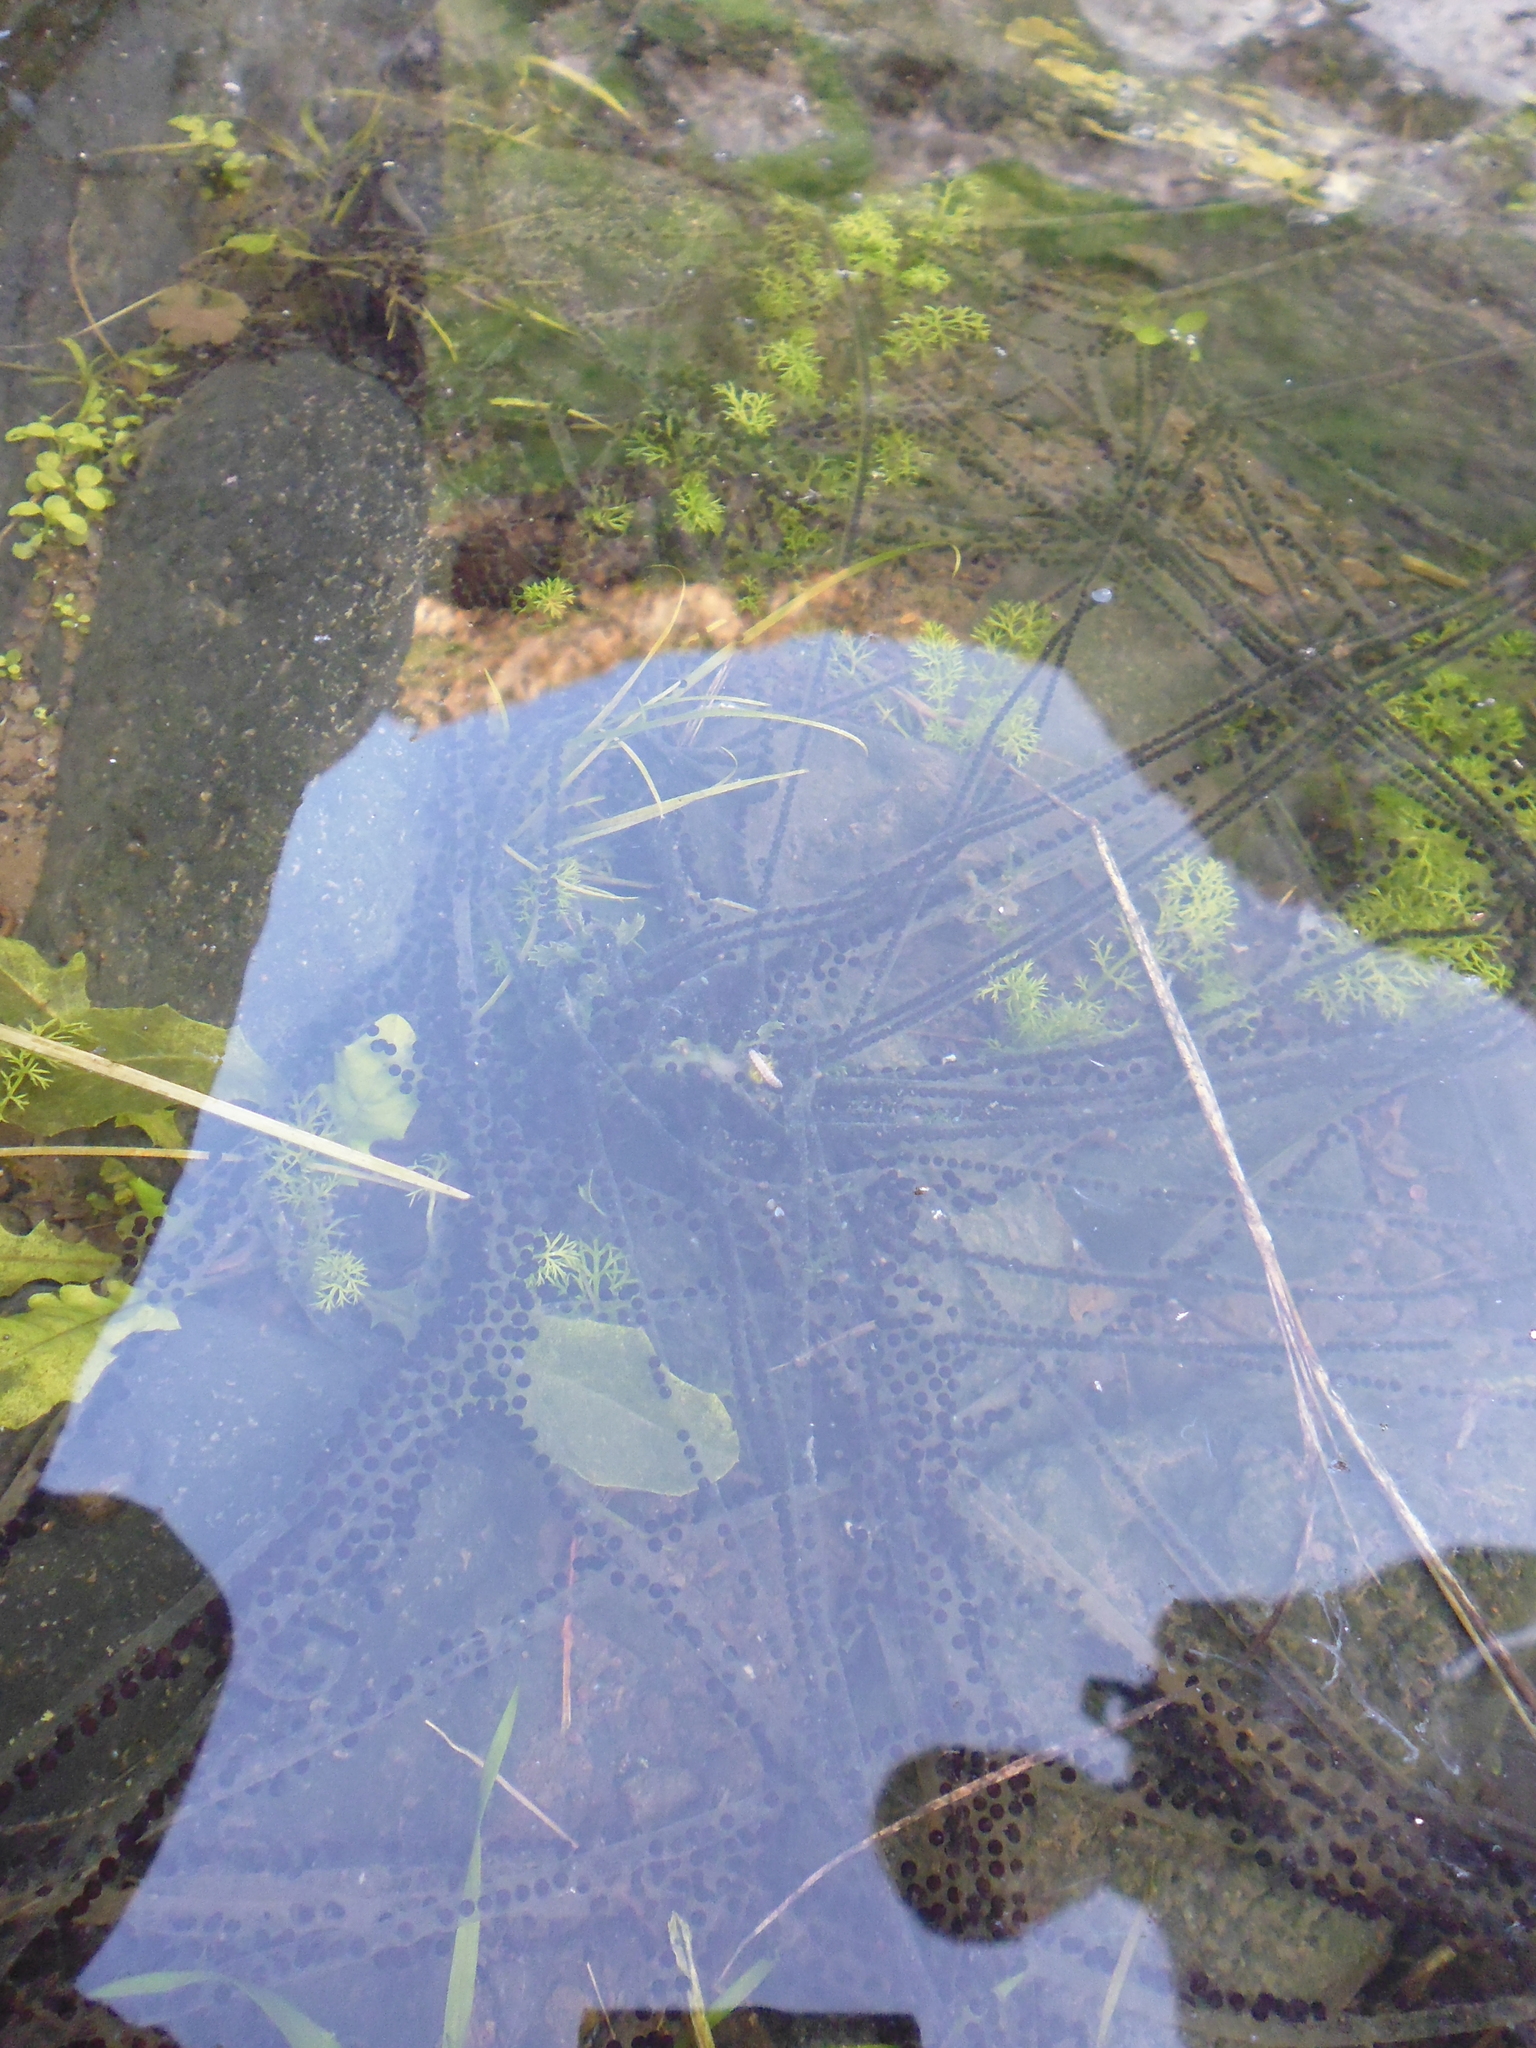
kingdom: Animalia
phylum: Chordata
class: Amphibia
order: Anura
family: Bufonidae
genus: Bufotes
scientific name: Bufotes viridis
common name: European green toad
